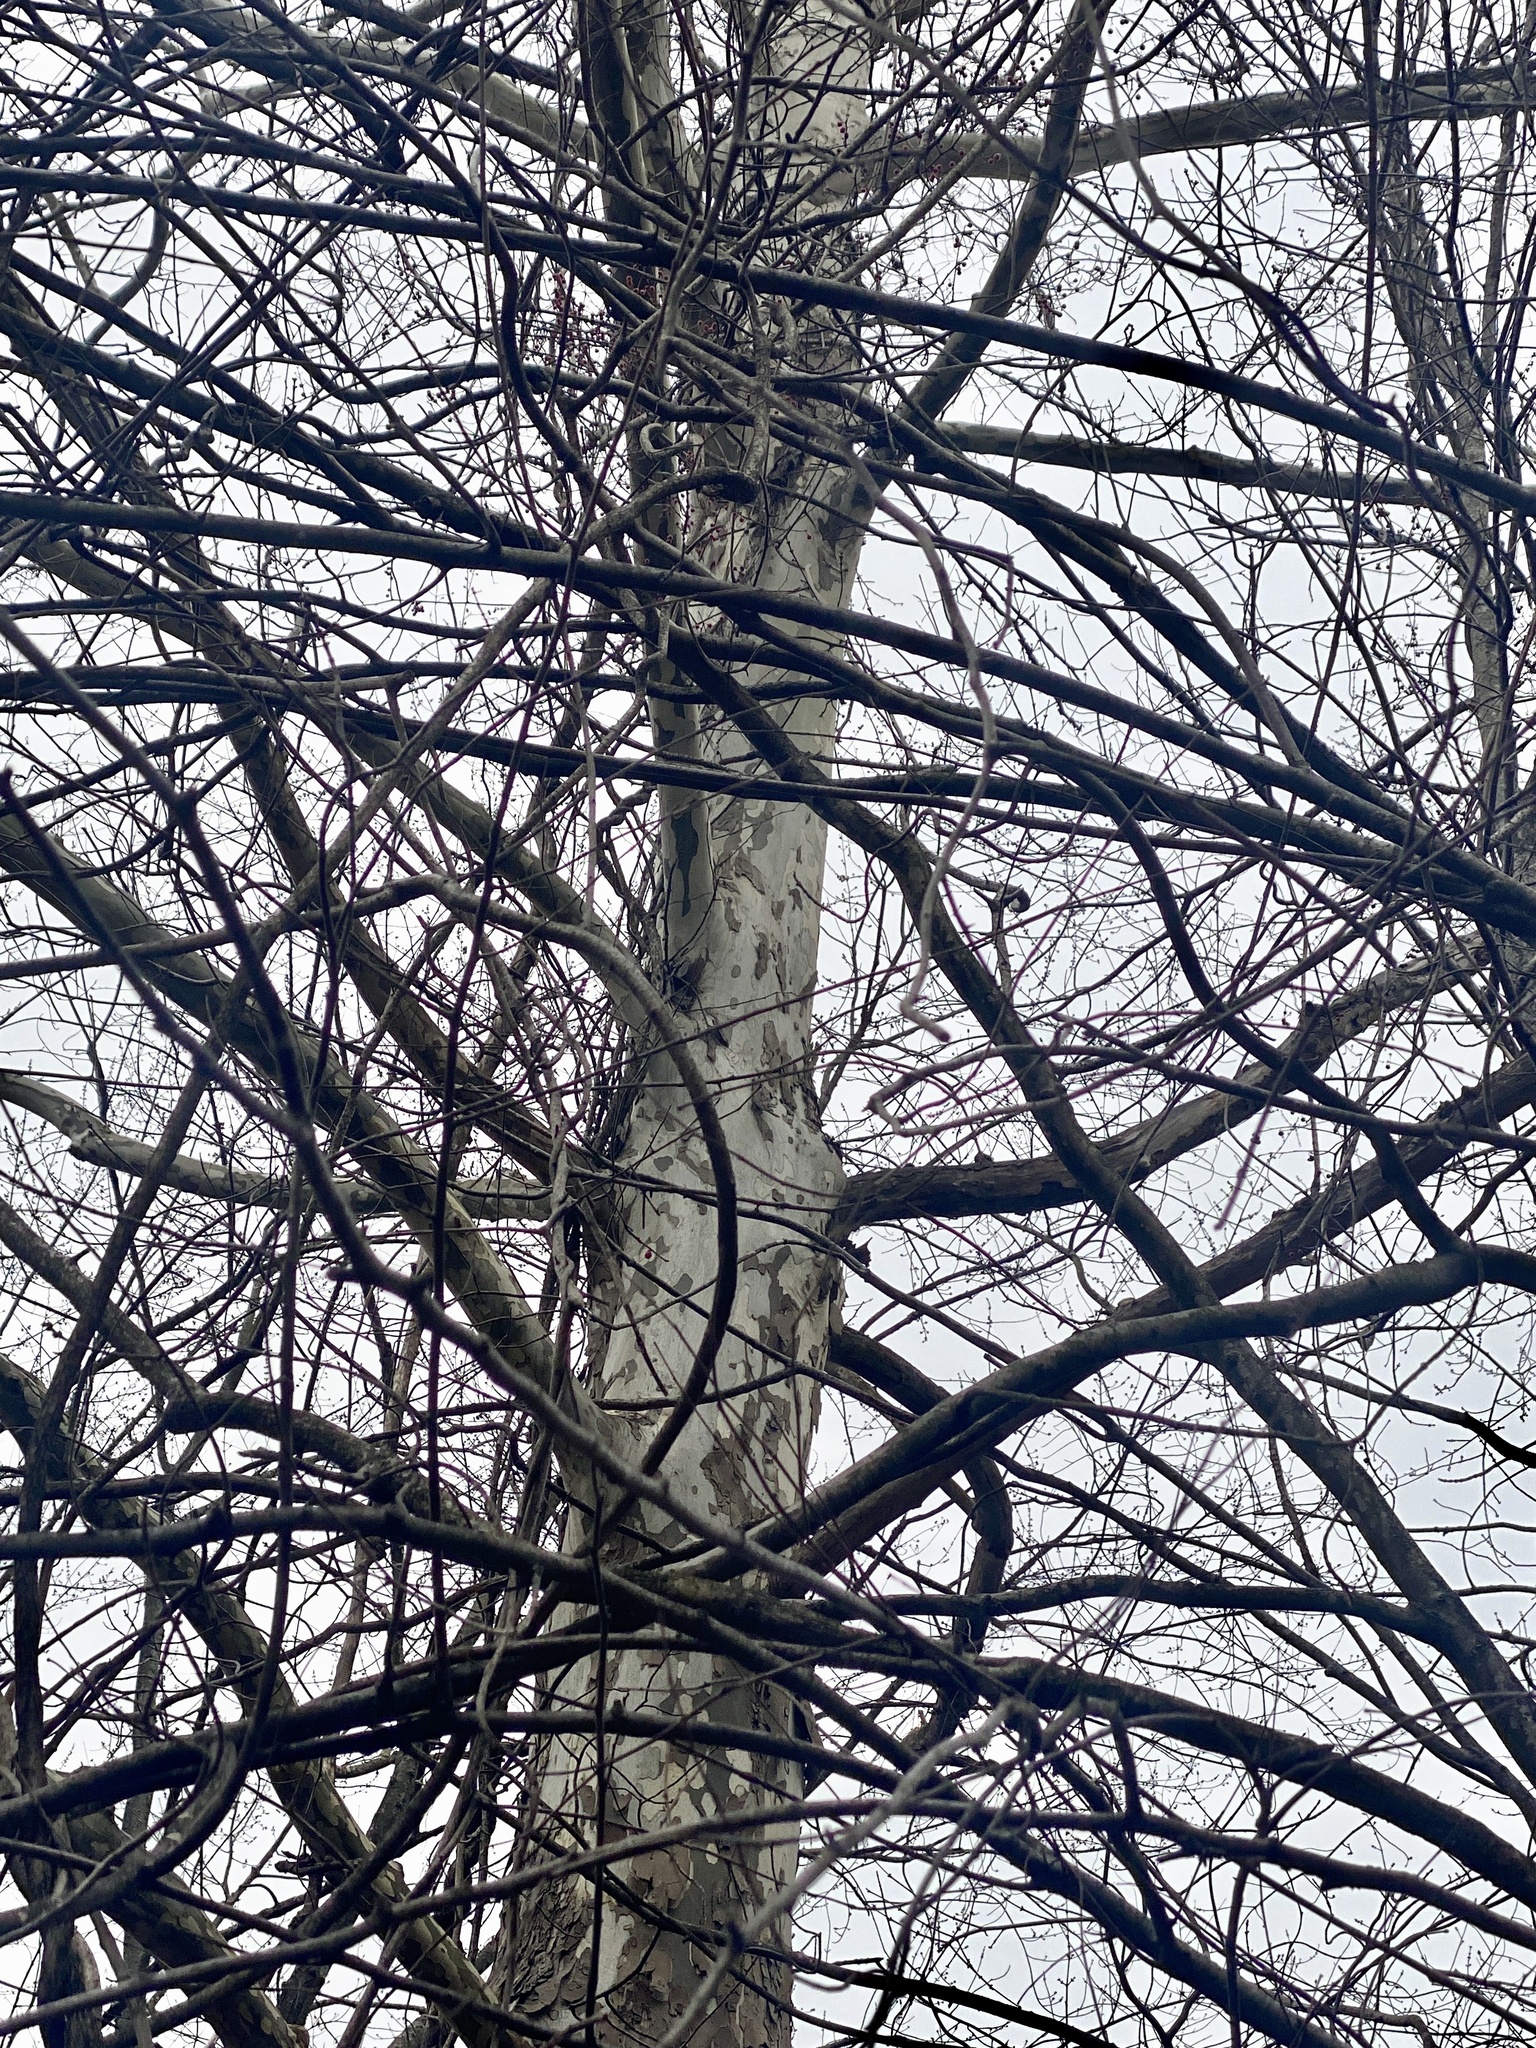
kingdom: Plantae
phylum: Tracheophyta
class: Magnoliopsida
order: Proteales
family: Platanaceae
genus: Platanus
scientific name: Platanus occidentalis
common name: American sycamore
